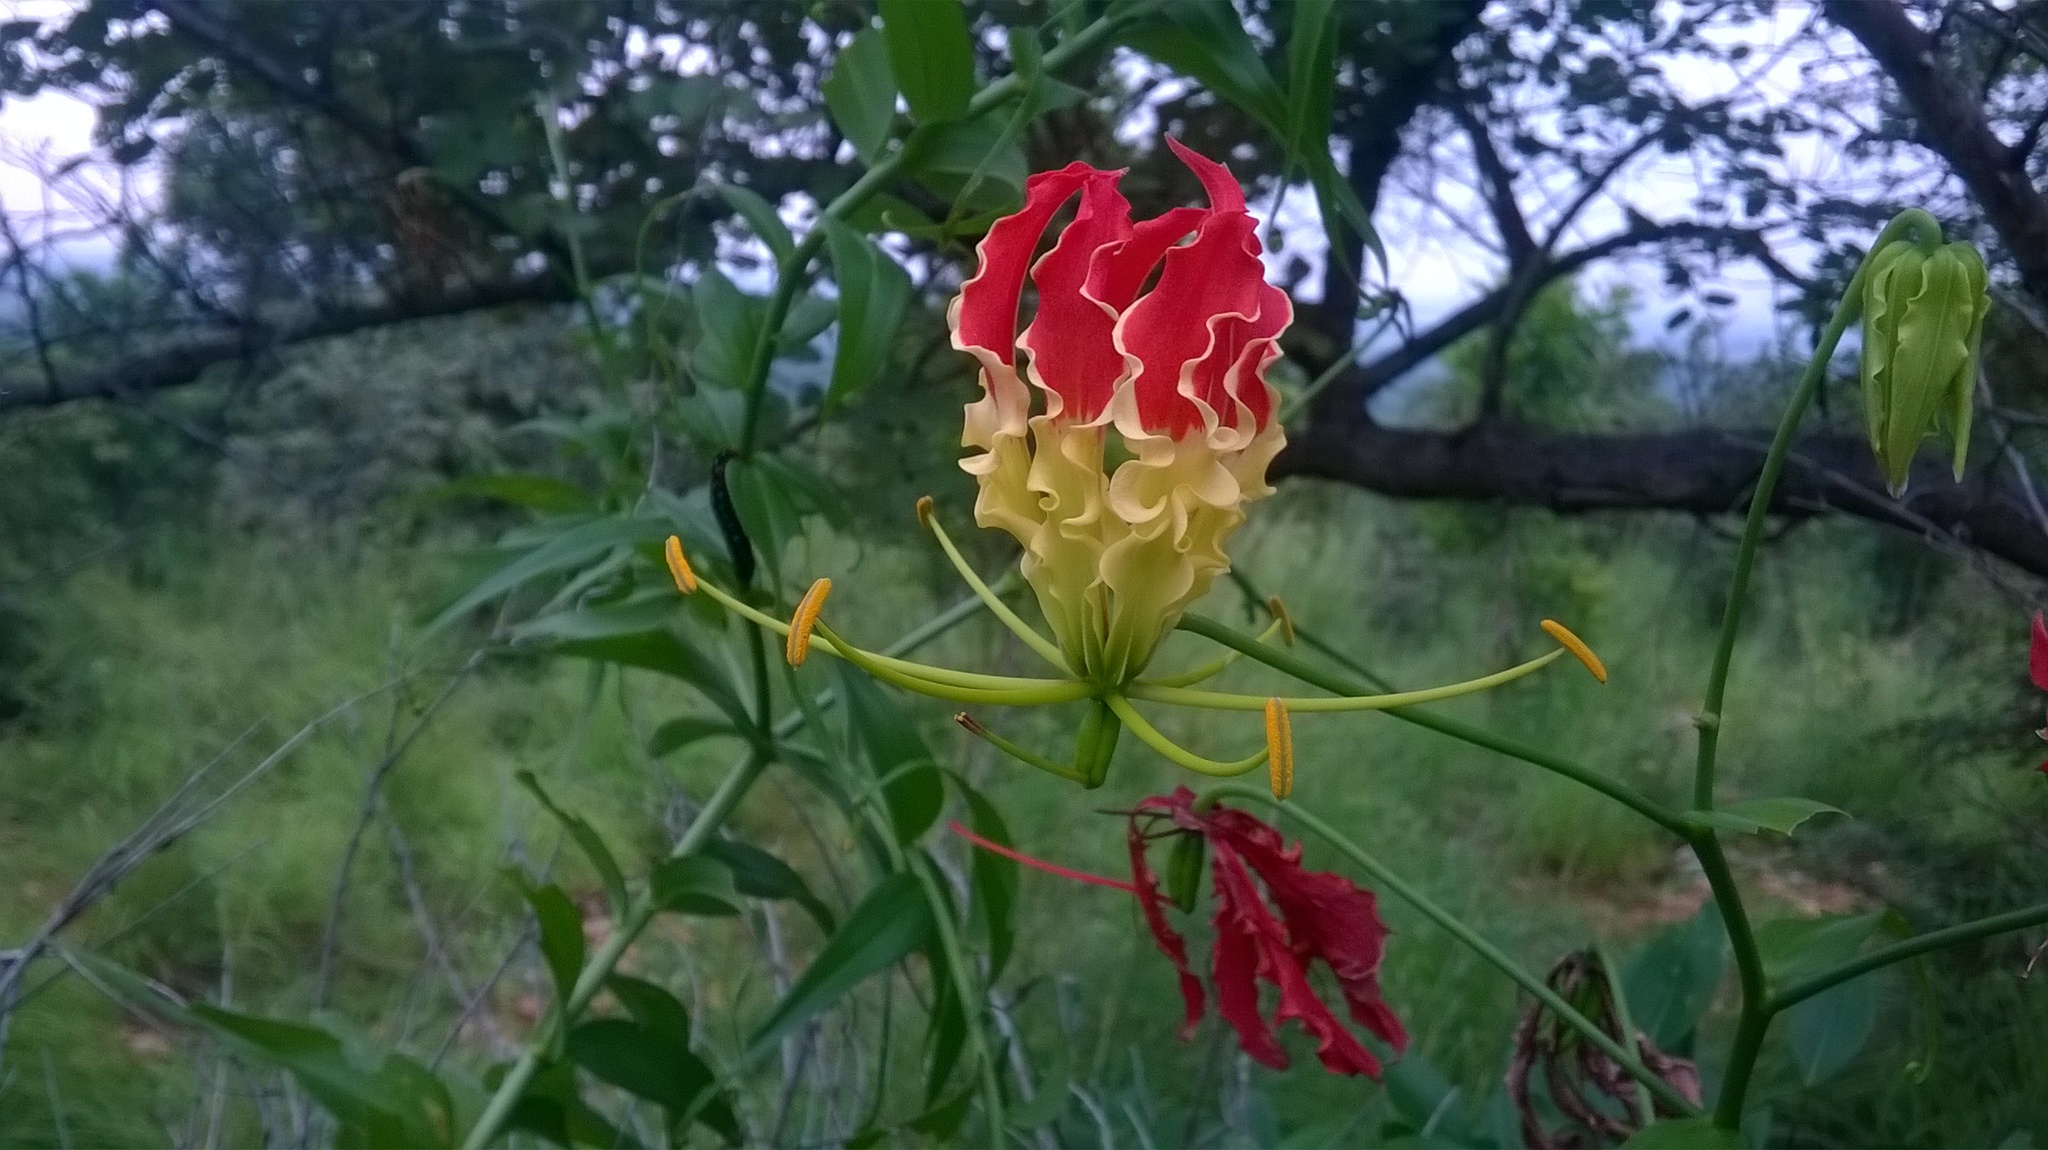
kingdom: Plantae
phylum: Tracheophyta
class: Liliopsida
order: Liliales
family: Colchicaceae
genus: Gloriosa
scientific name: Gloriosa superba
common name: Flame lily
